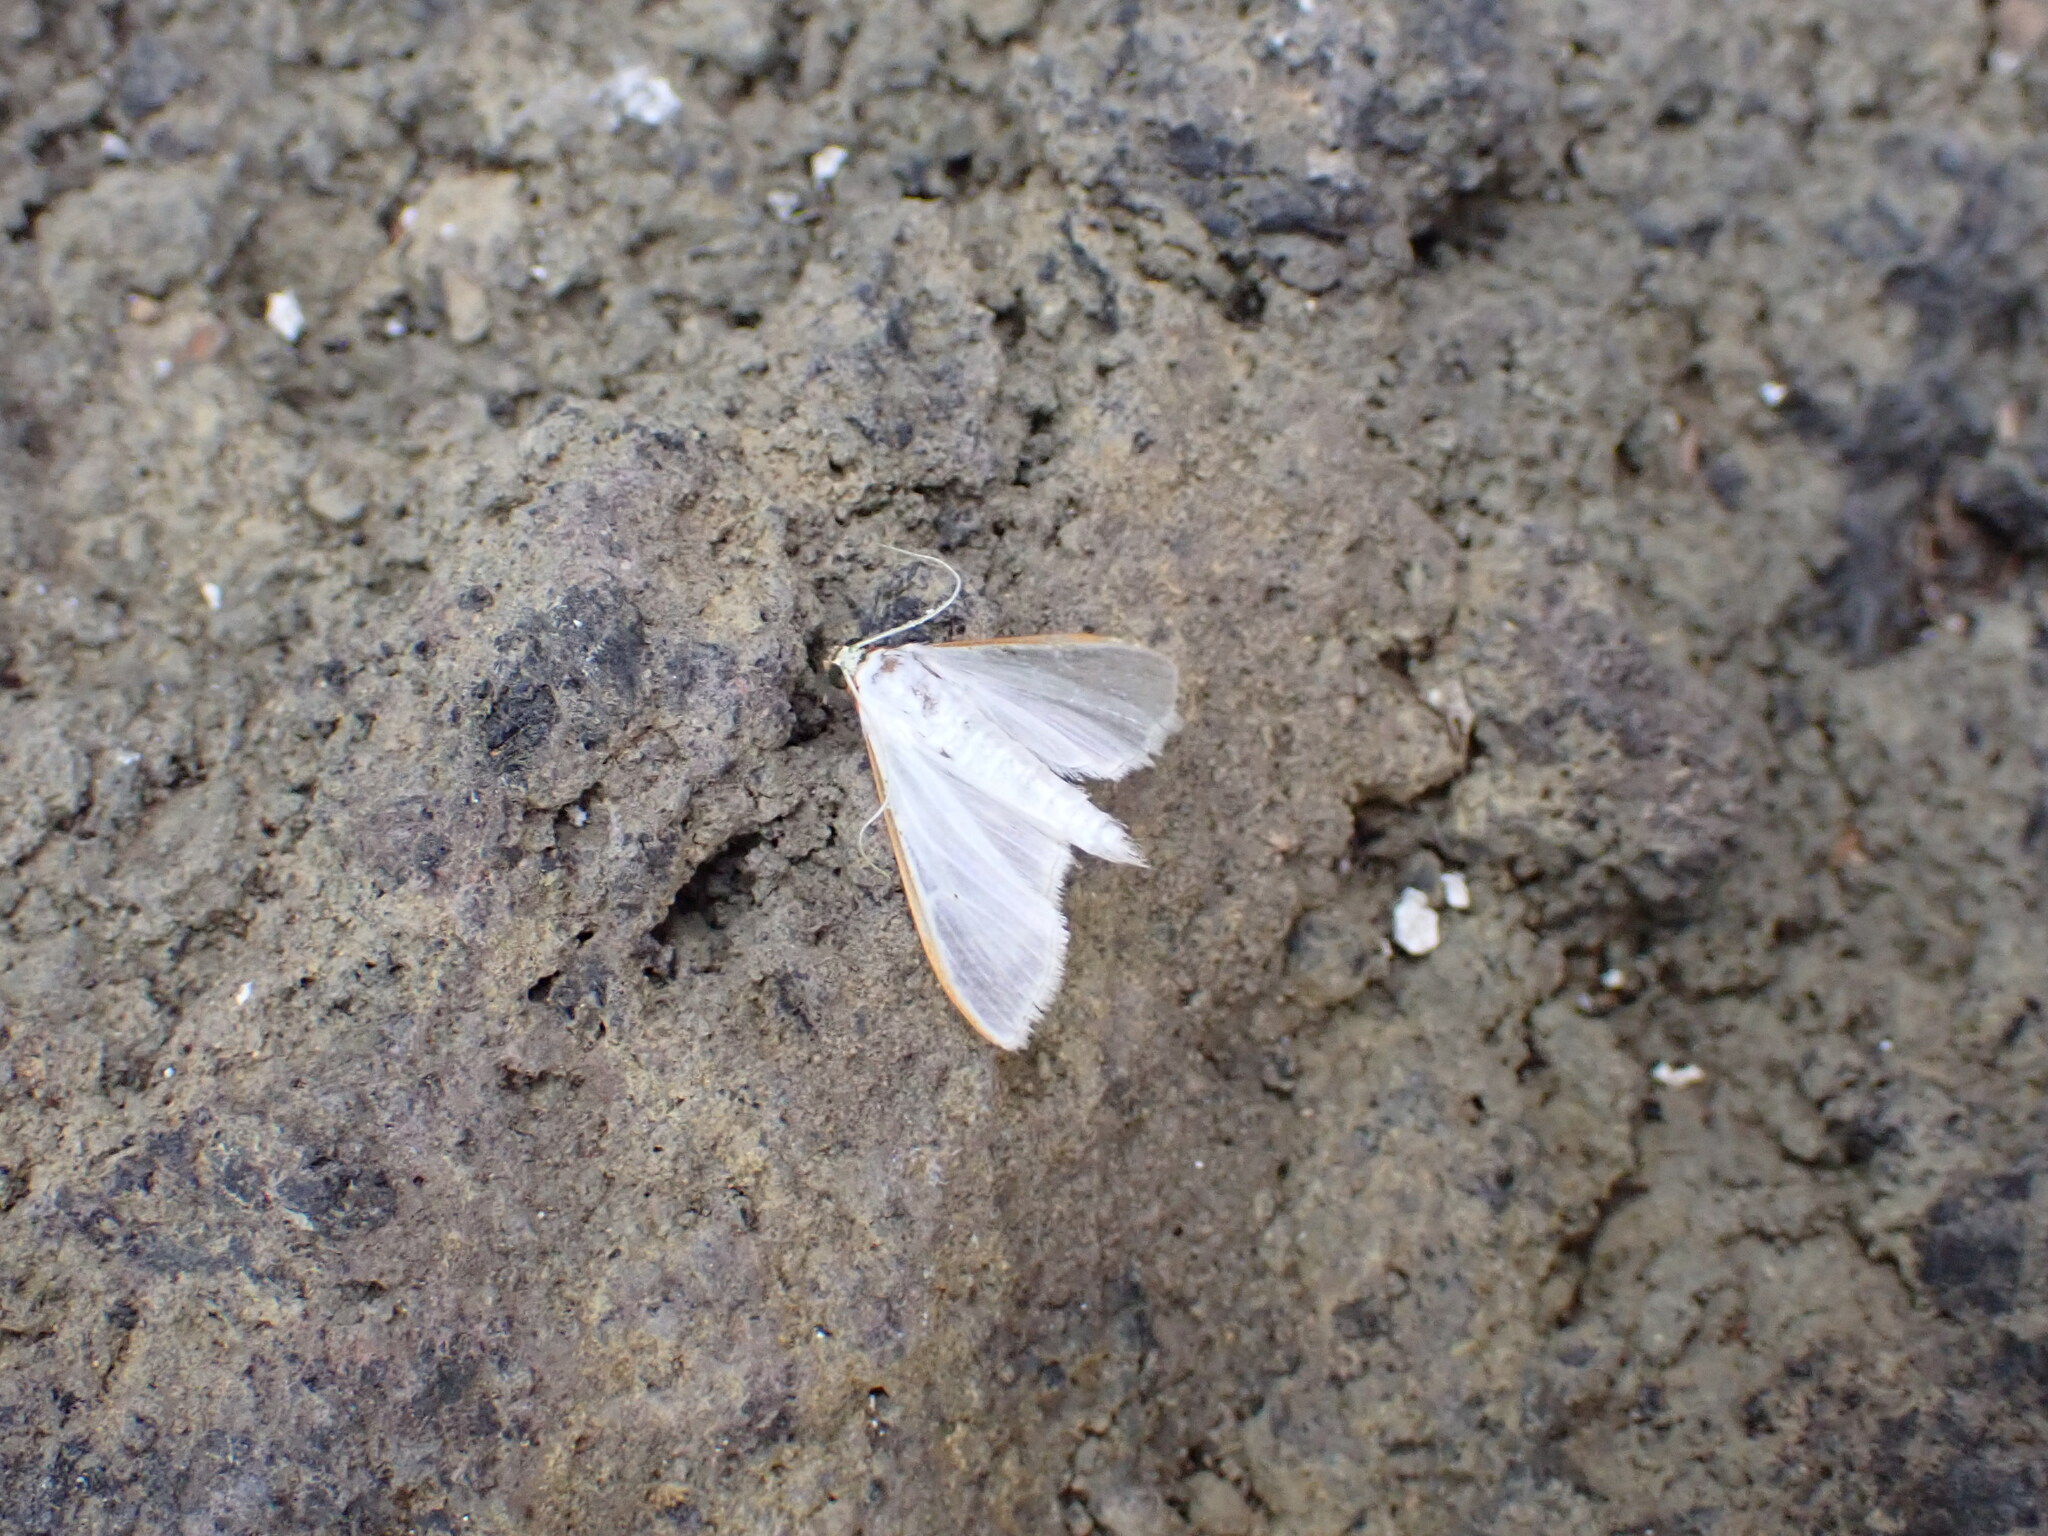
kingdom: Animalia
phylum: Arthropoda
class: Insecta
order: Lepidoptera
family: Crambidae
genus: Palpita
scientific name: Palpita vitrealis
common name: Olive-tree pearl
